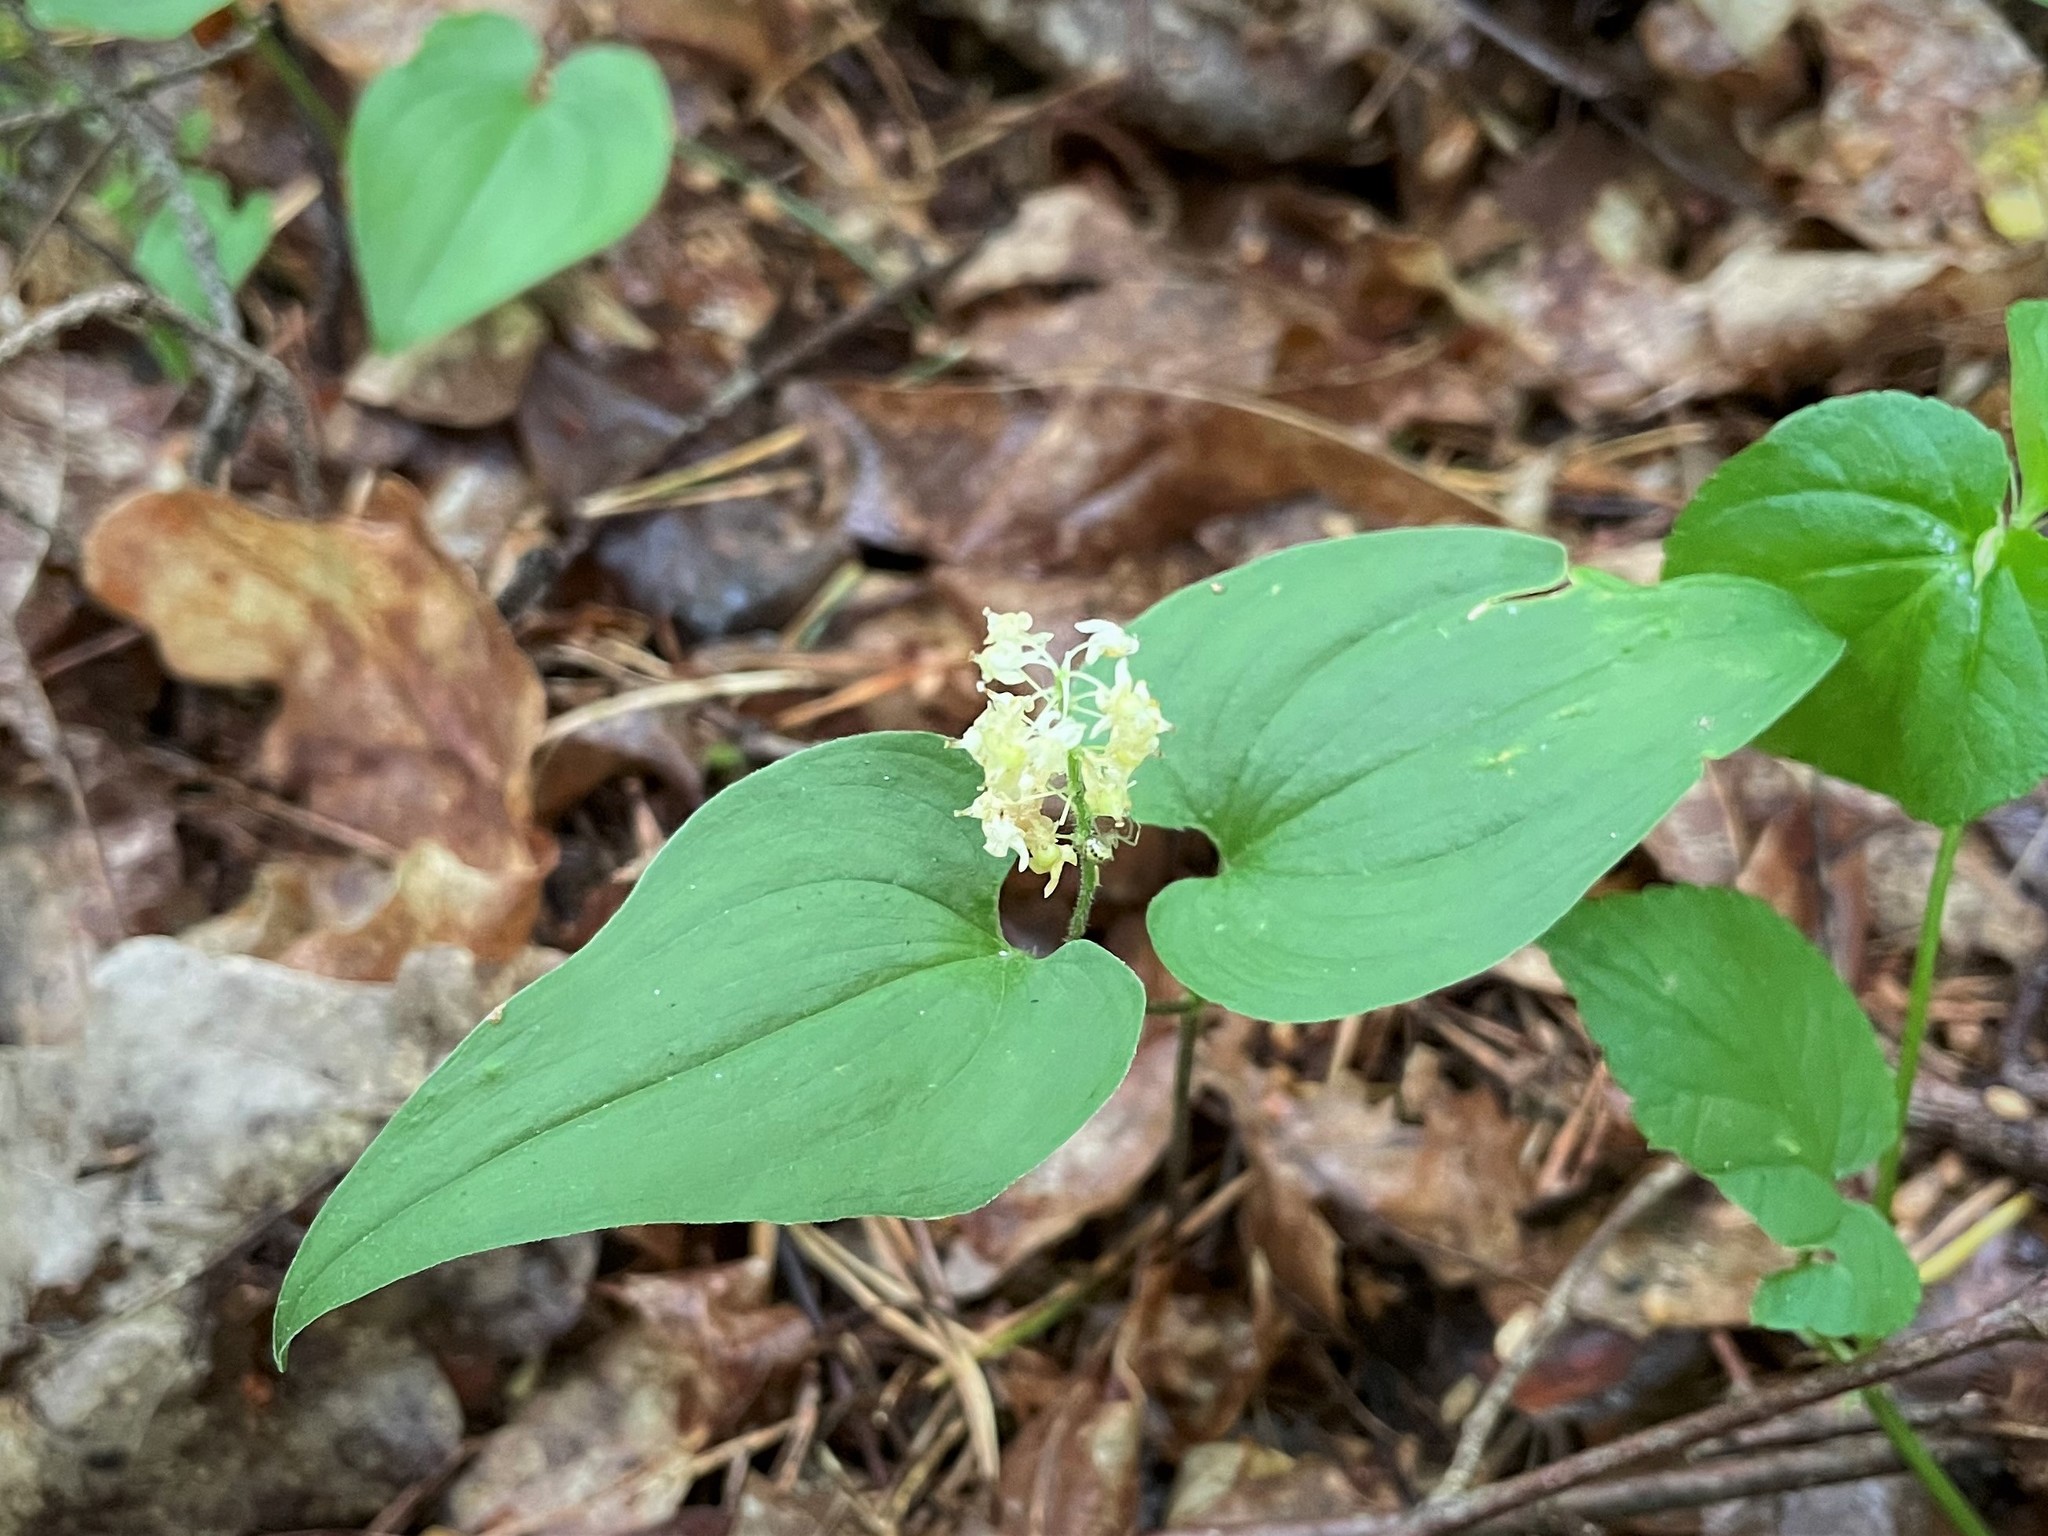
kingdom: Plantae
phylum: Tracheophyta
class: Liliopsida
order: Asparagales
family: Asparagaceae
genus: Maianthemum
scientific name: Maianthemum bifolium
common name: May lily
